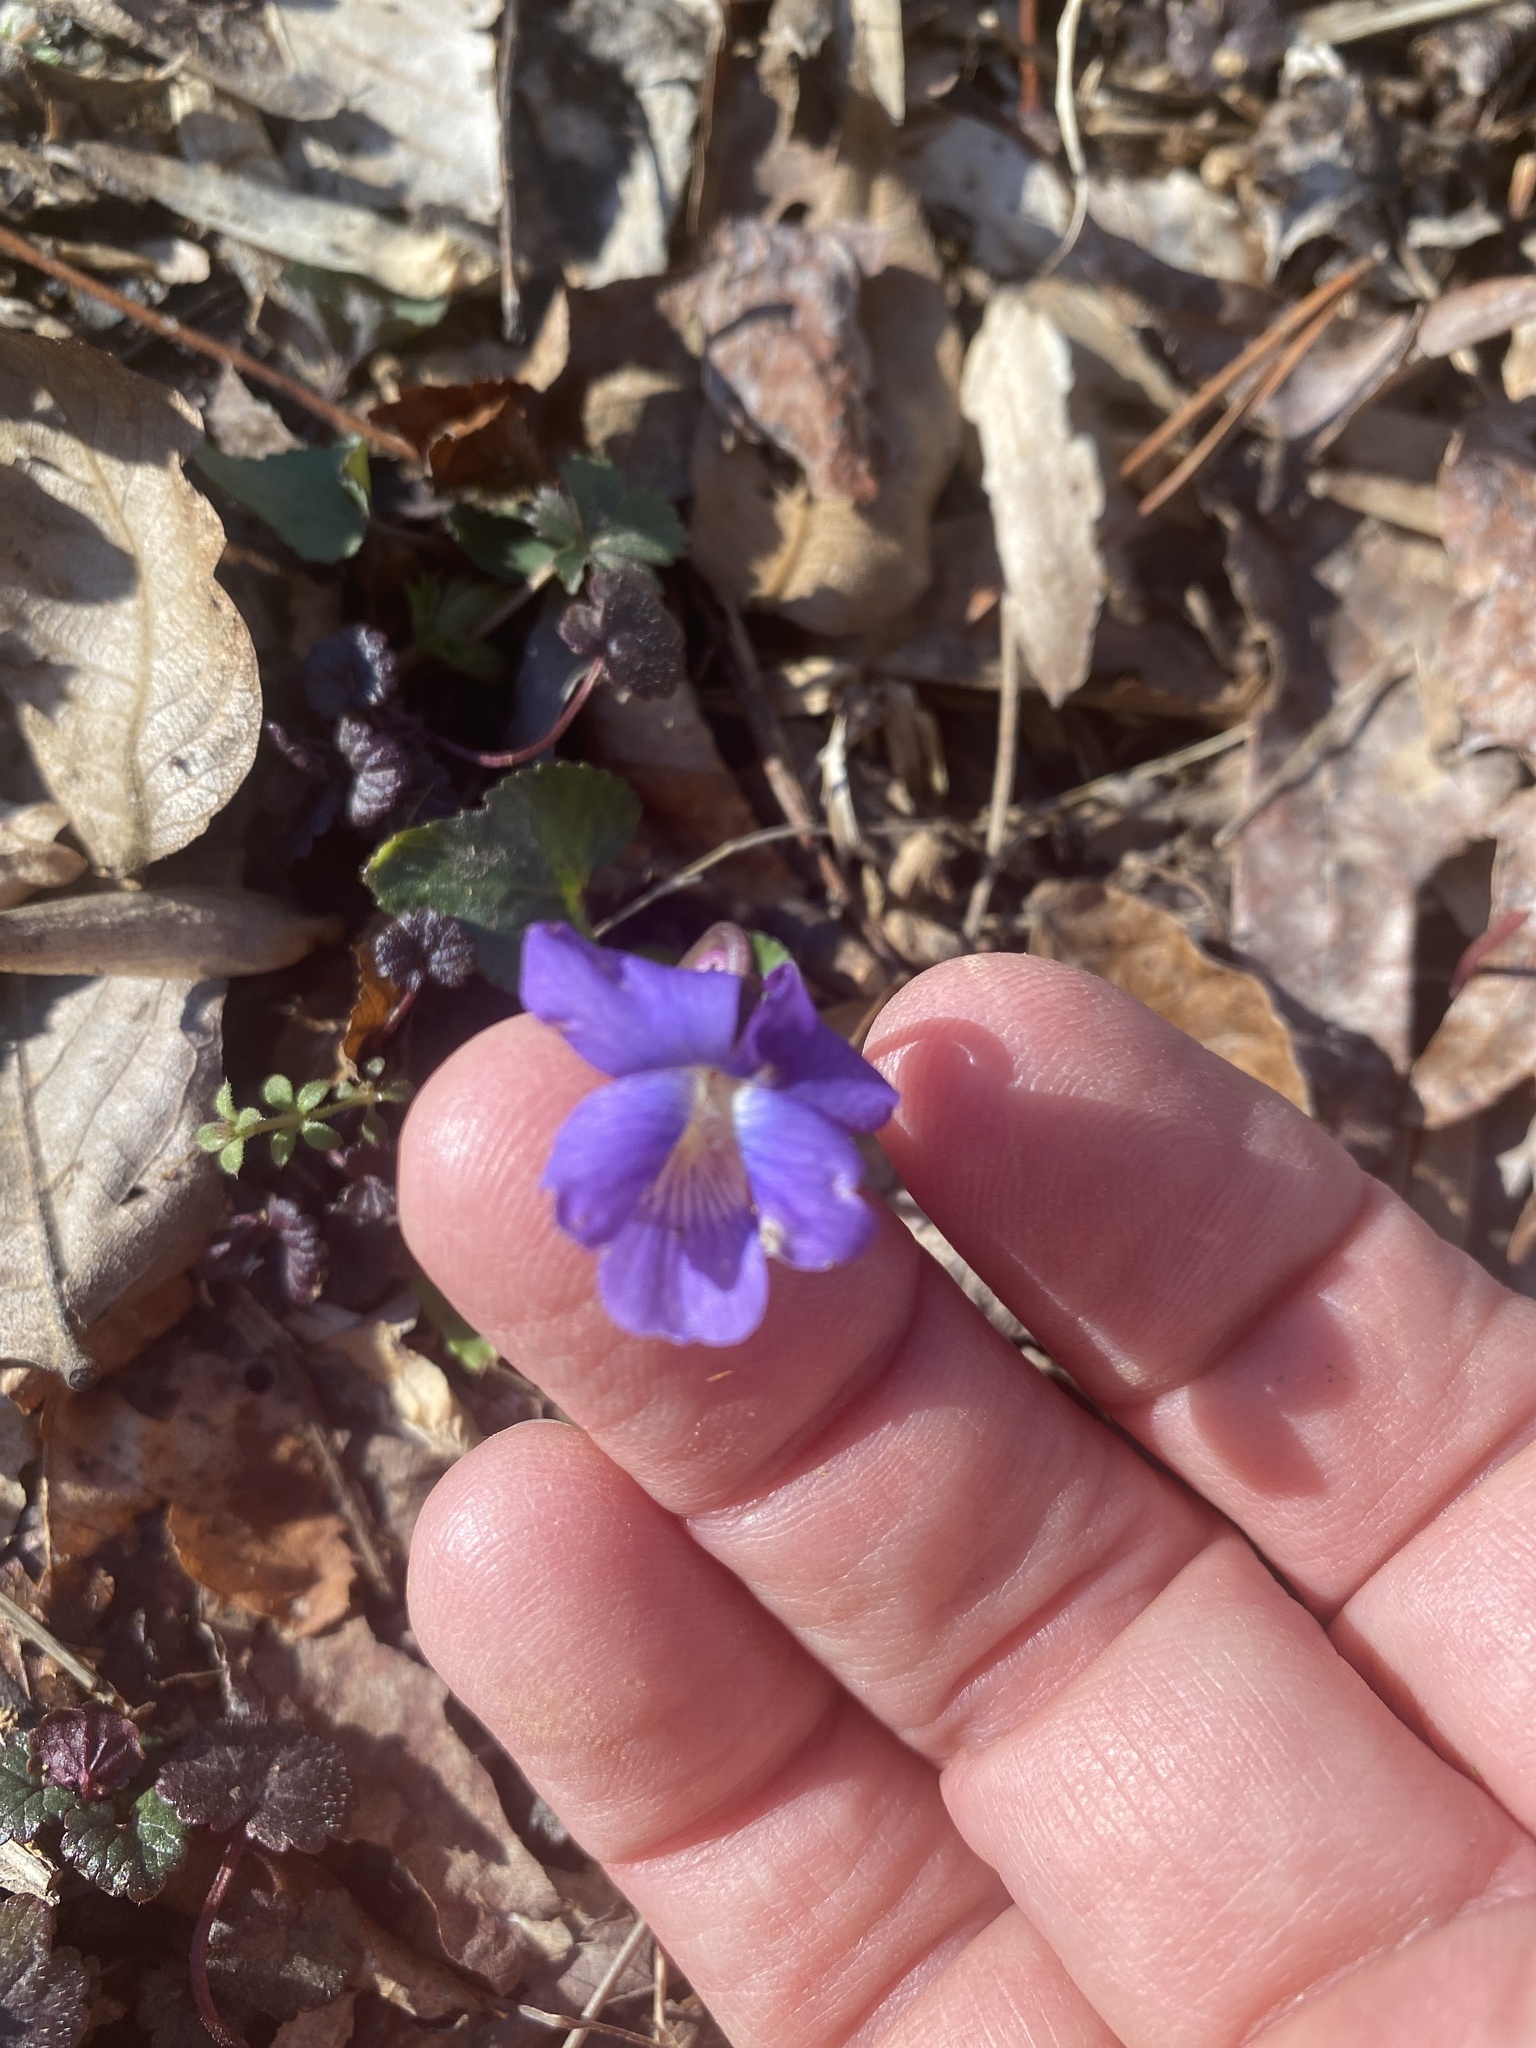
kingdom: Plantae
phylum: Tracheophyta
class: Magnoliopsida
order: Malpighiales
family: Violaceae
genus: Viola
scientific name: Viola sororia
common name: Dooryard violet
